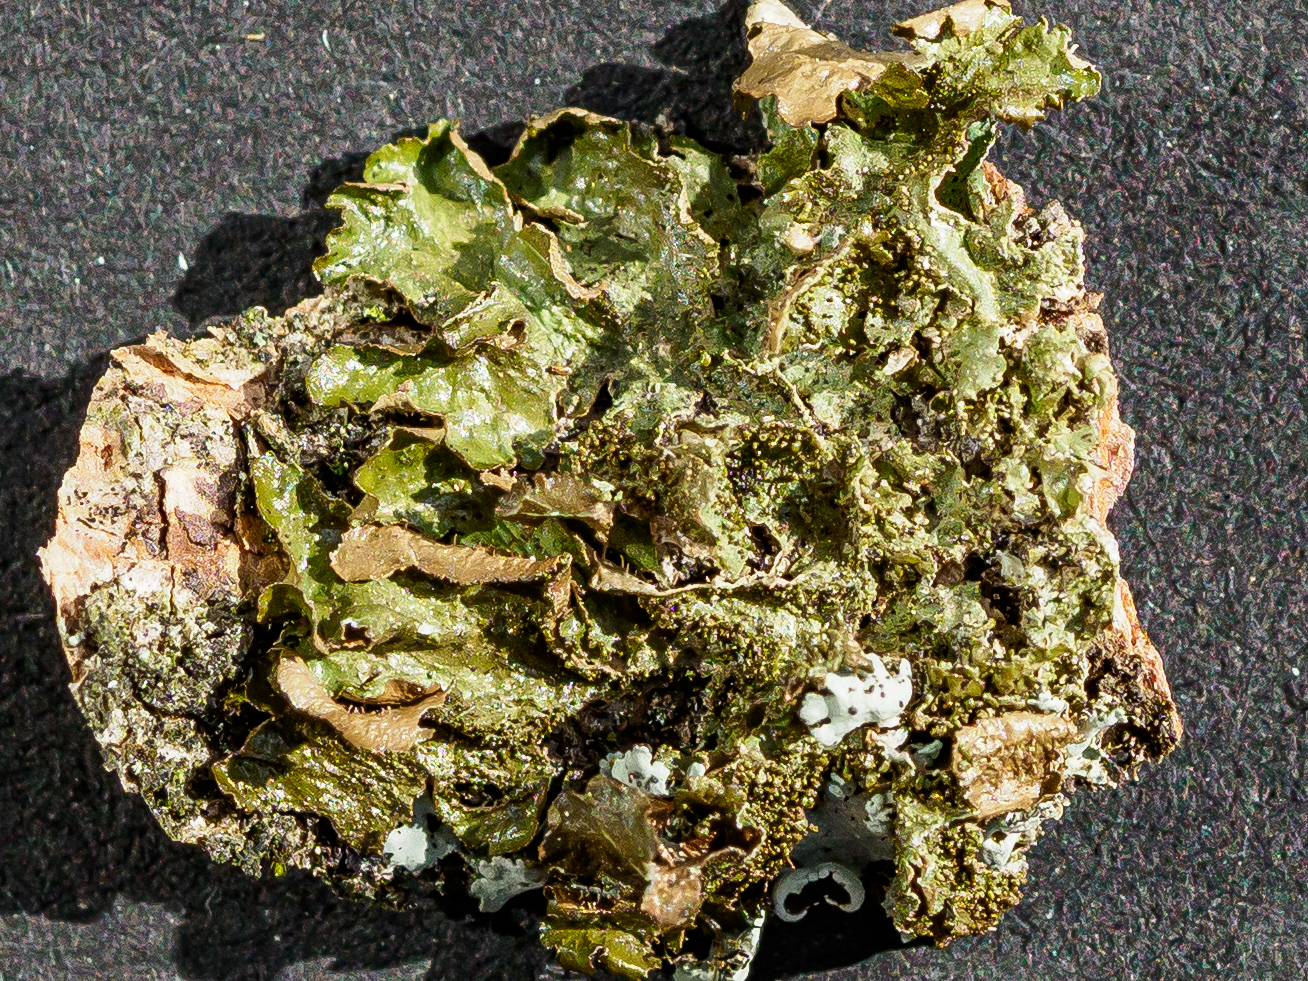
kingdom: Fungi
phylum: Ascomycota
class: Lecanoromycetes
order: Lecanorales
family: Parmeliaceae
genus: Melanohalea
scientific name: Melanohalea exasperatula
